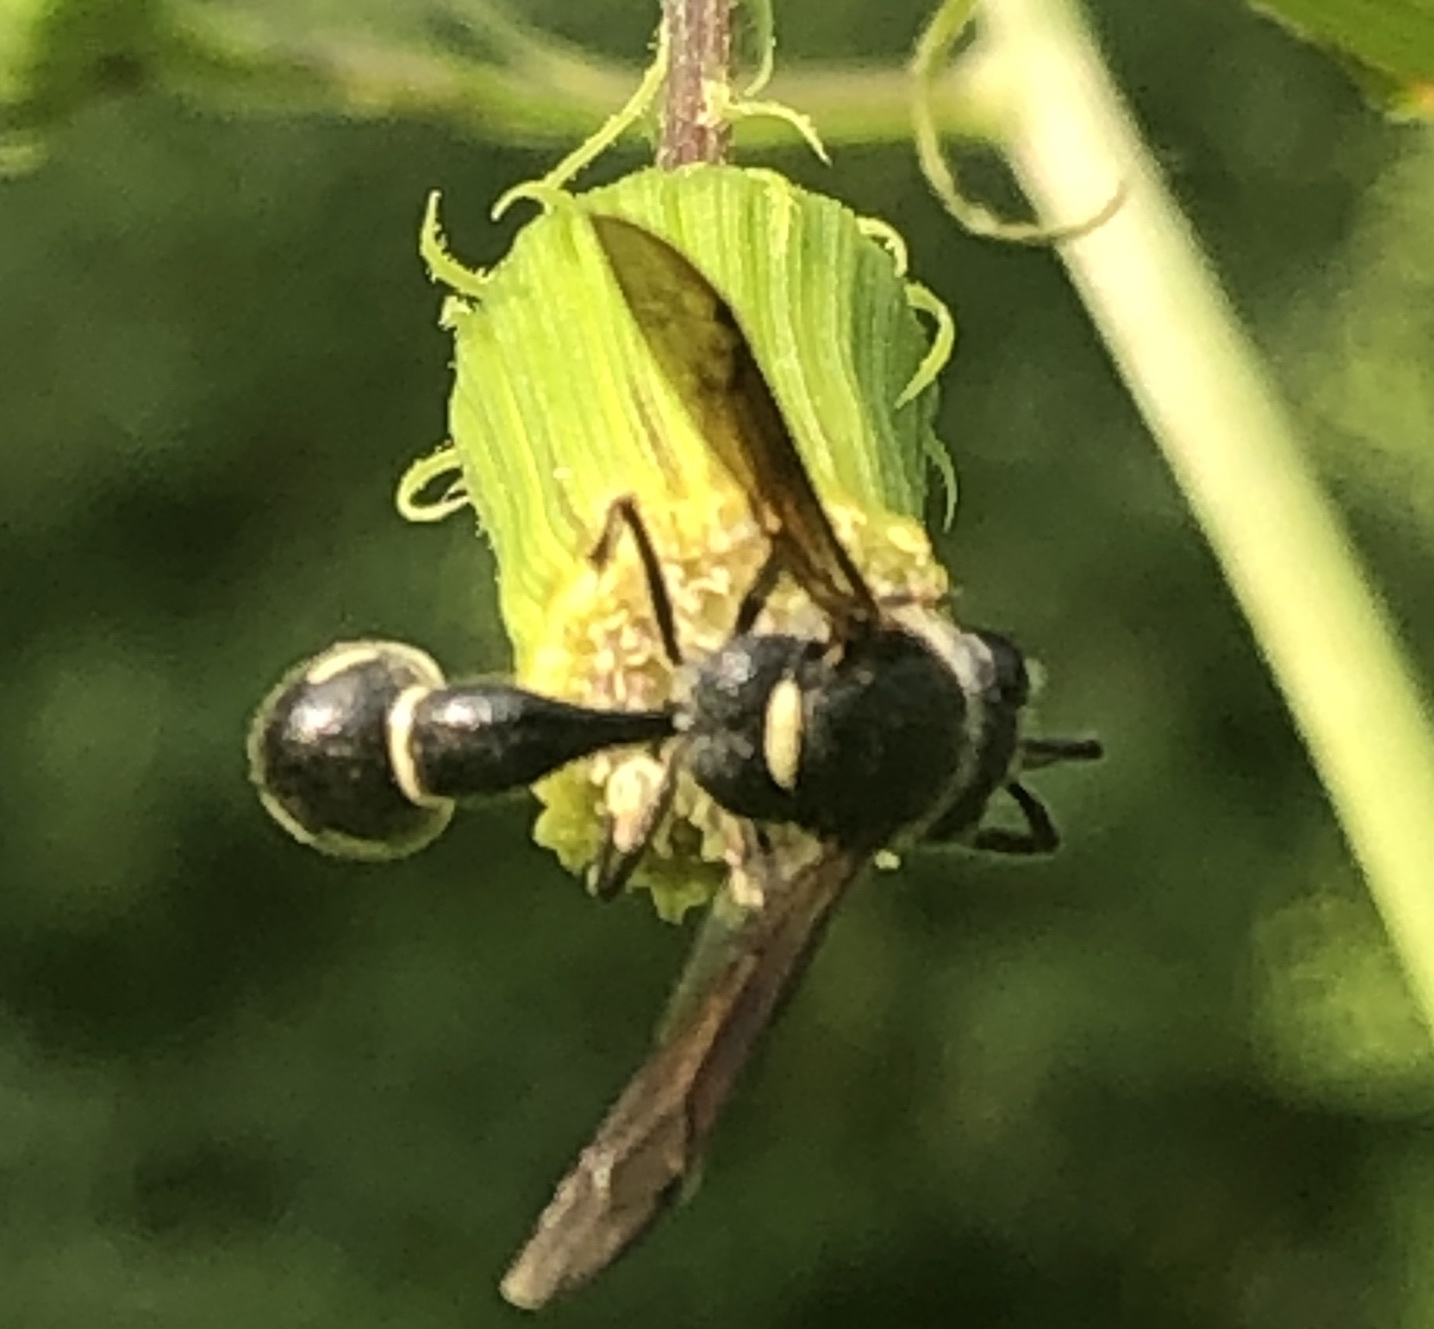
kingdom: Animalia
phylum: Arthropoda
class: Insecta
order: Hymenoptera
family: Vespidae
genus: Eumenes
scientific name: Eumenes fraternus
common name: Fraternal potter wasp
